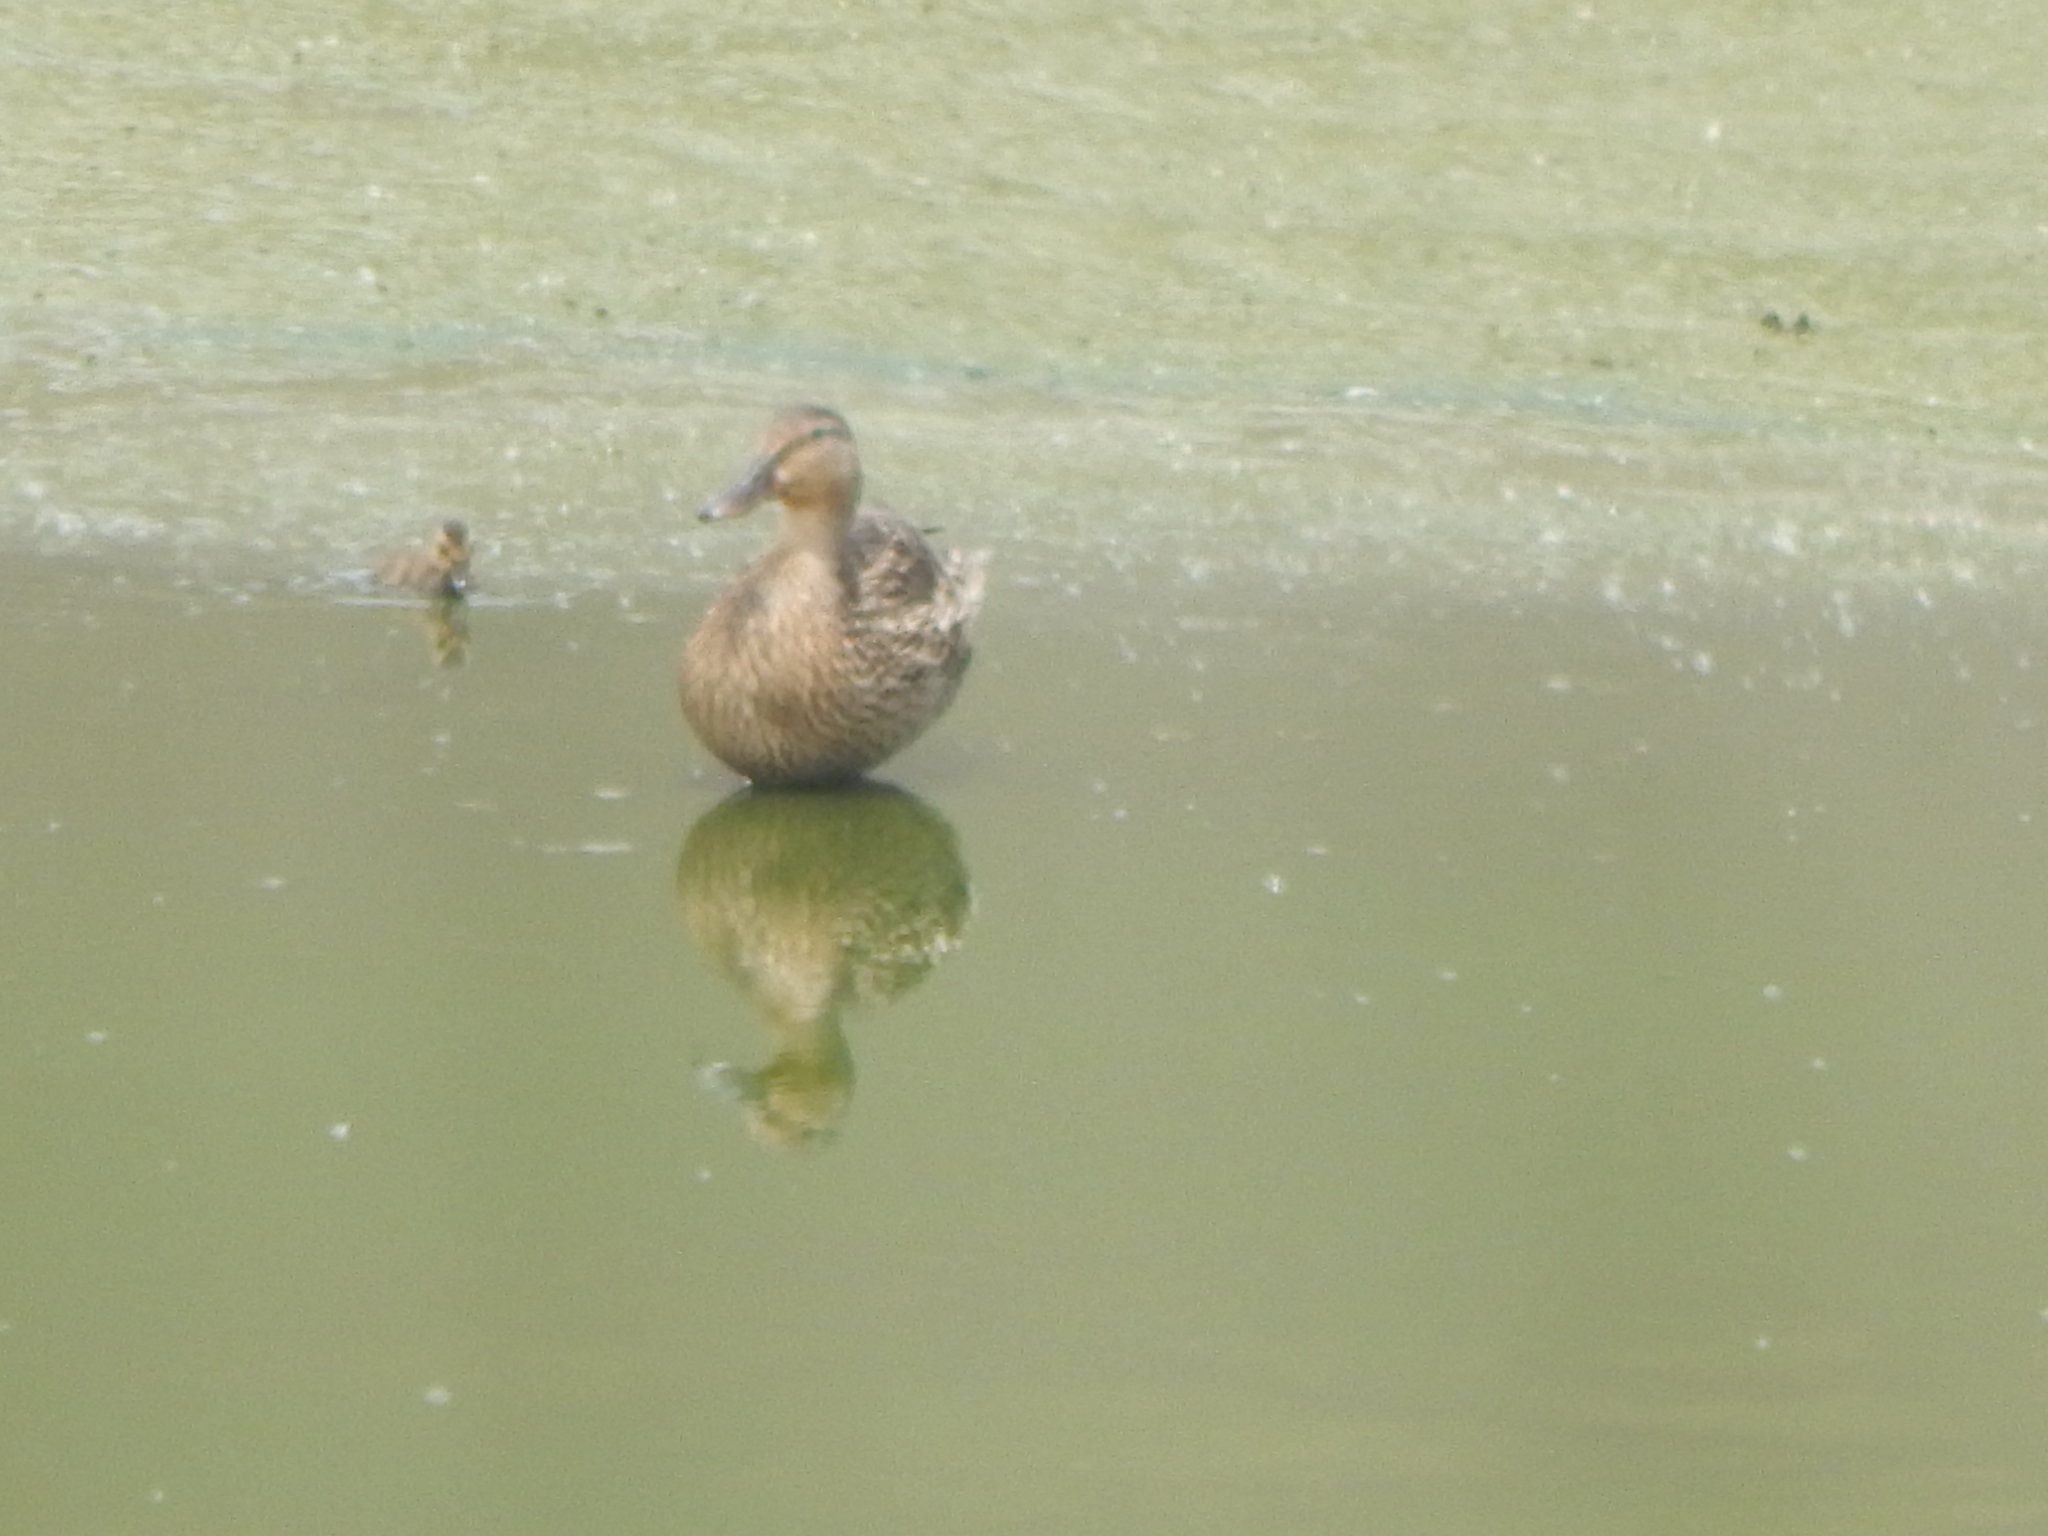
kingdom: Animalia
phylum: Chordata
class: Aves
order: Anseriformes
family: Anatidae
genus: Anas
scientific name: Anas platyrhynchos
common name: Mallard
